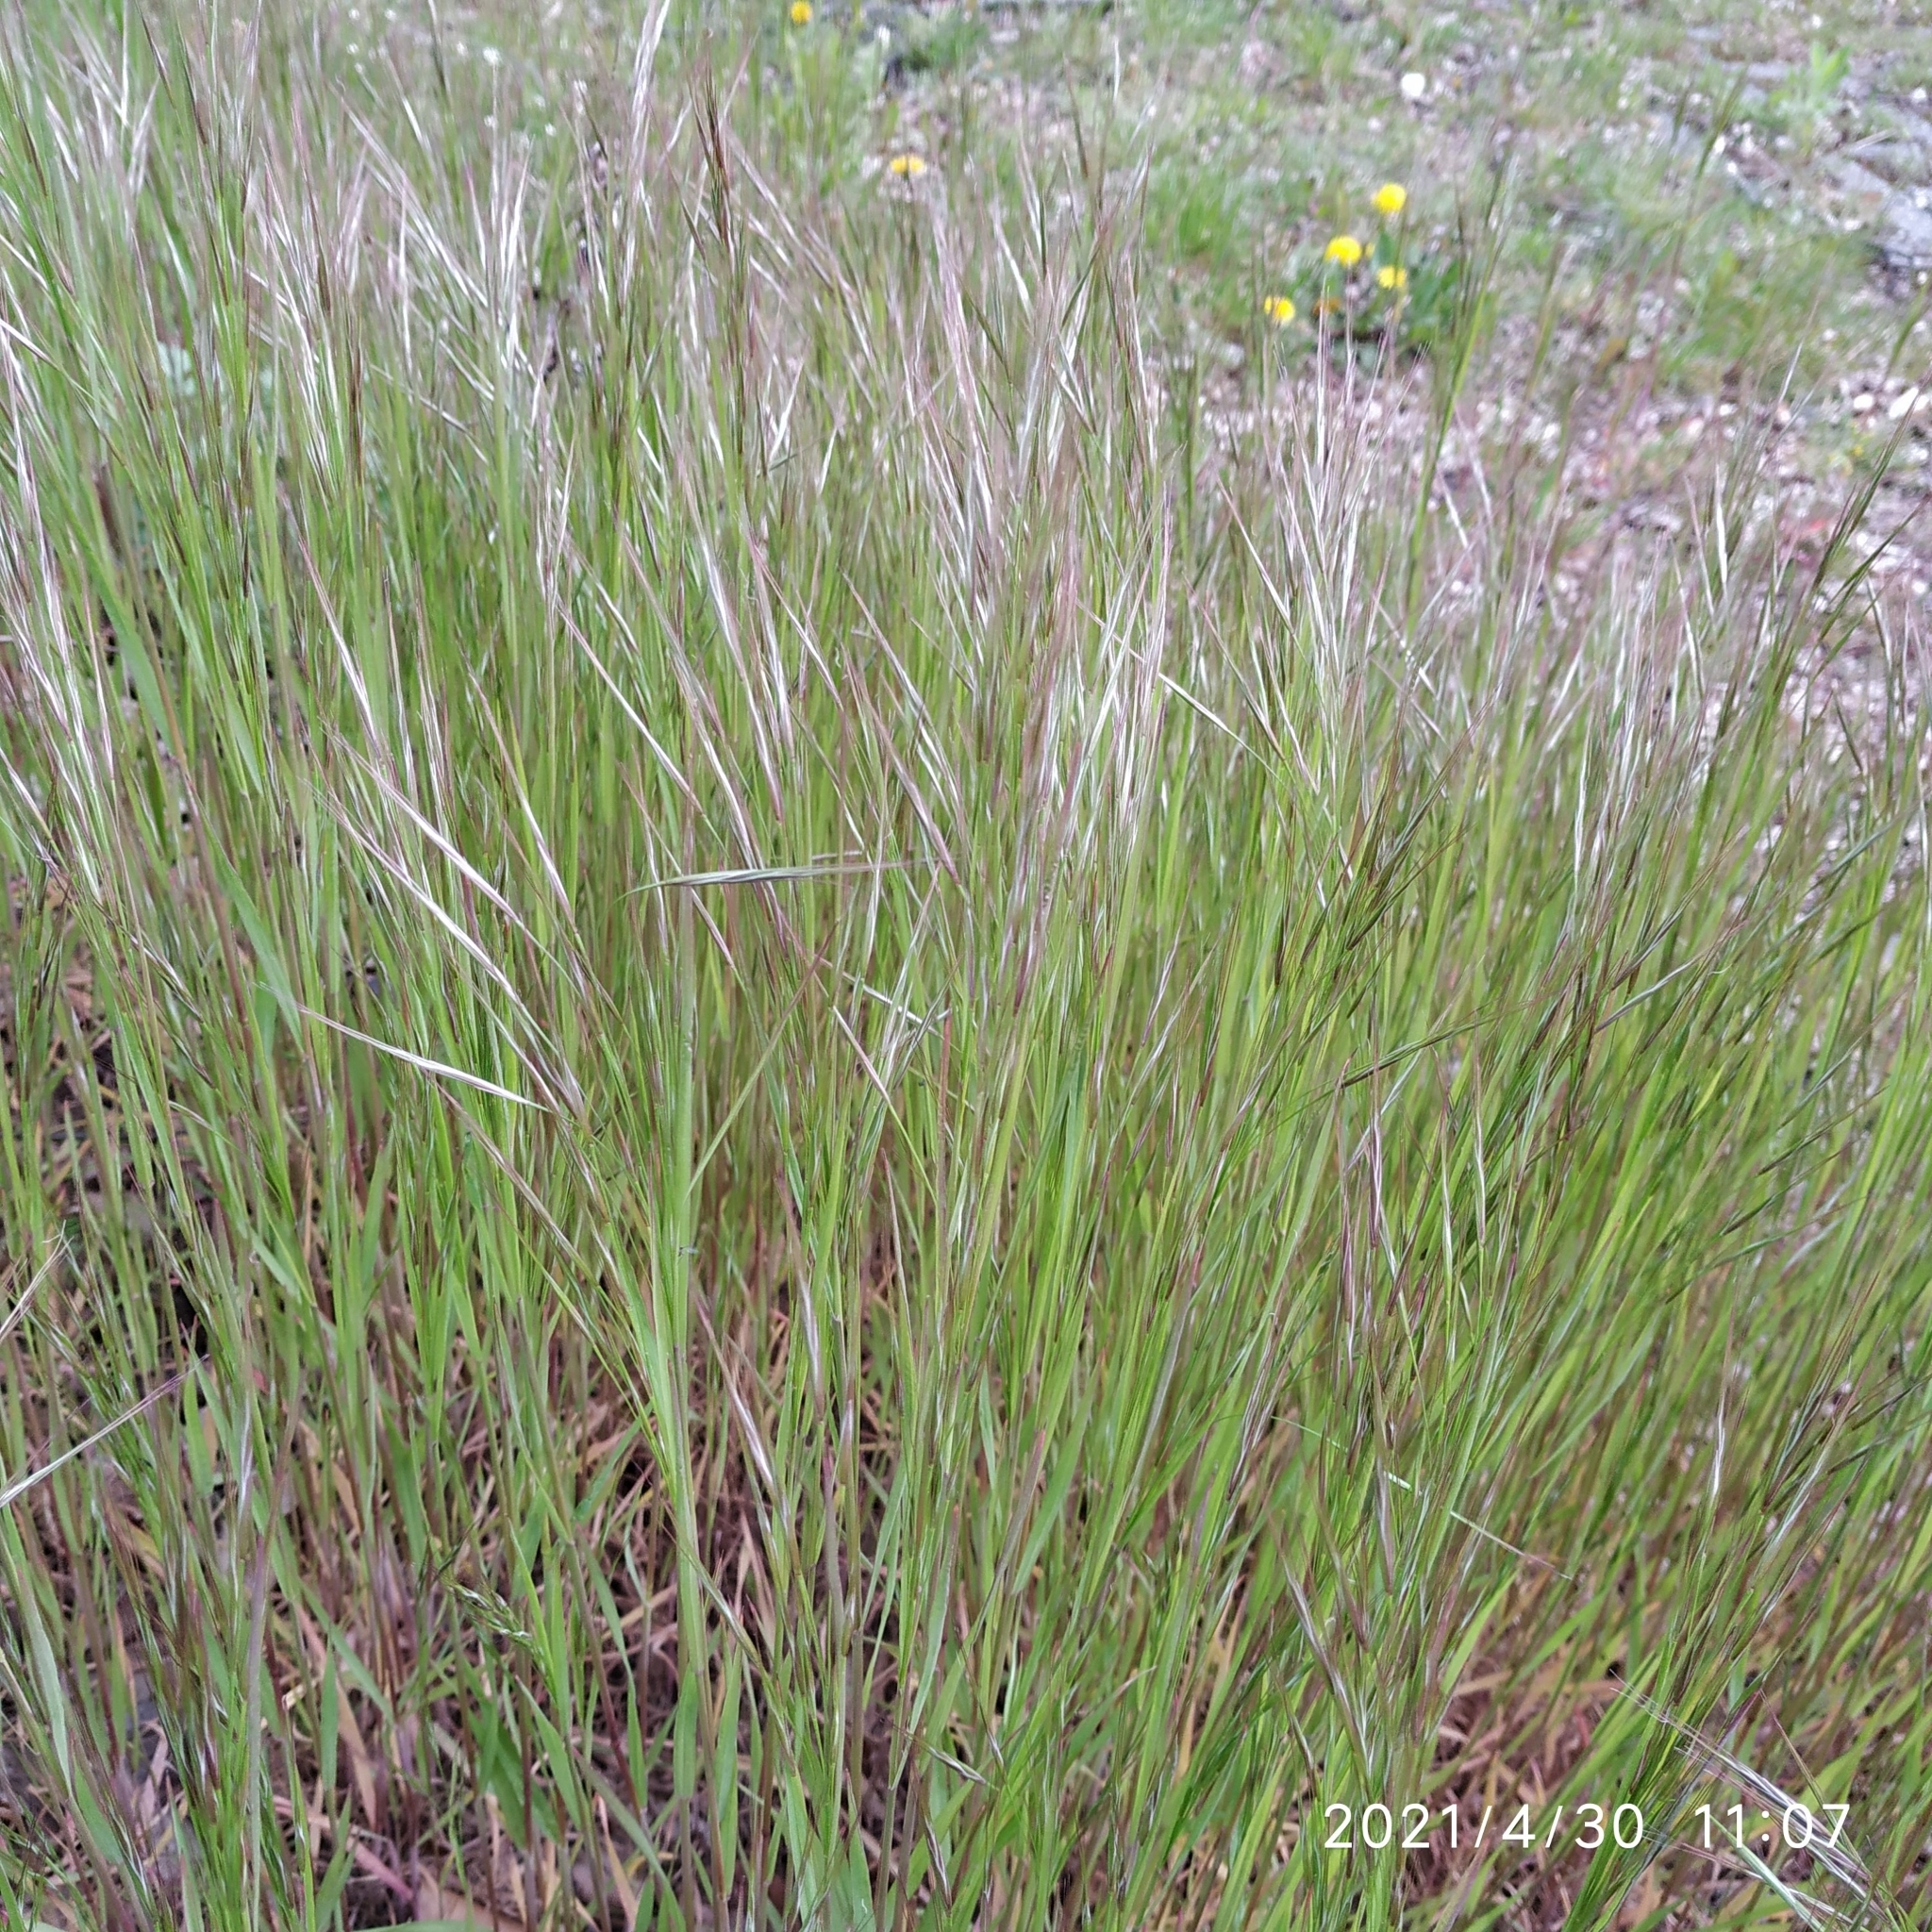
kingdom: Plantae
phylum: Tracheophyta
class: Liliopsida
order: Poales
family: Poaceae
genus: Bromus
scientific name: Bromus sterilis
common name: Poverty brome
